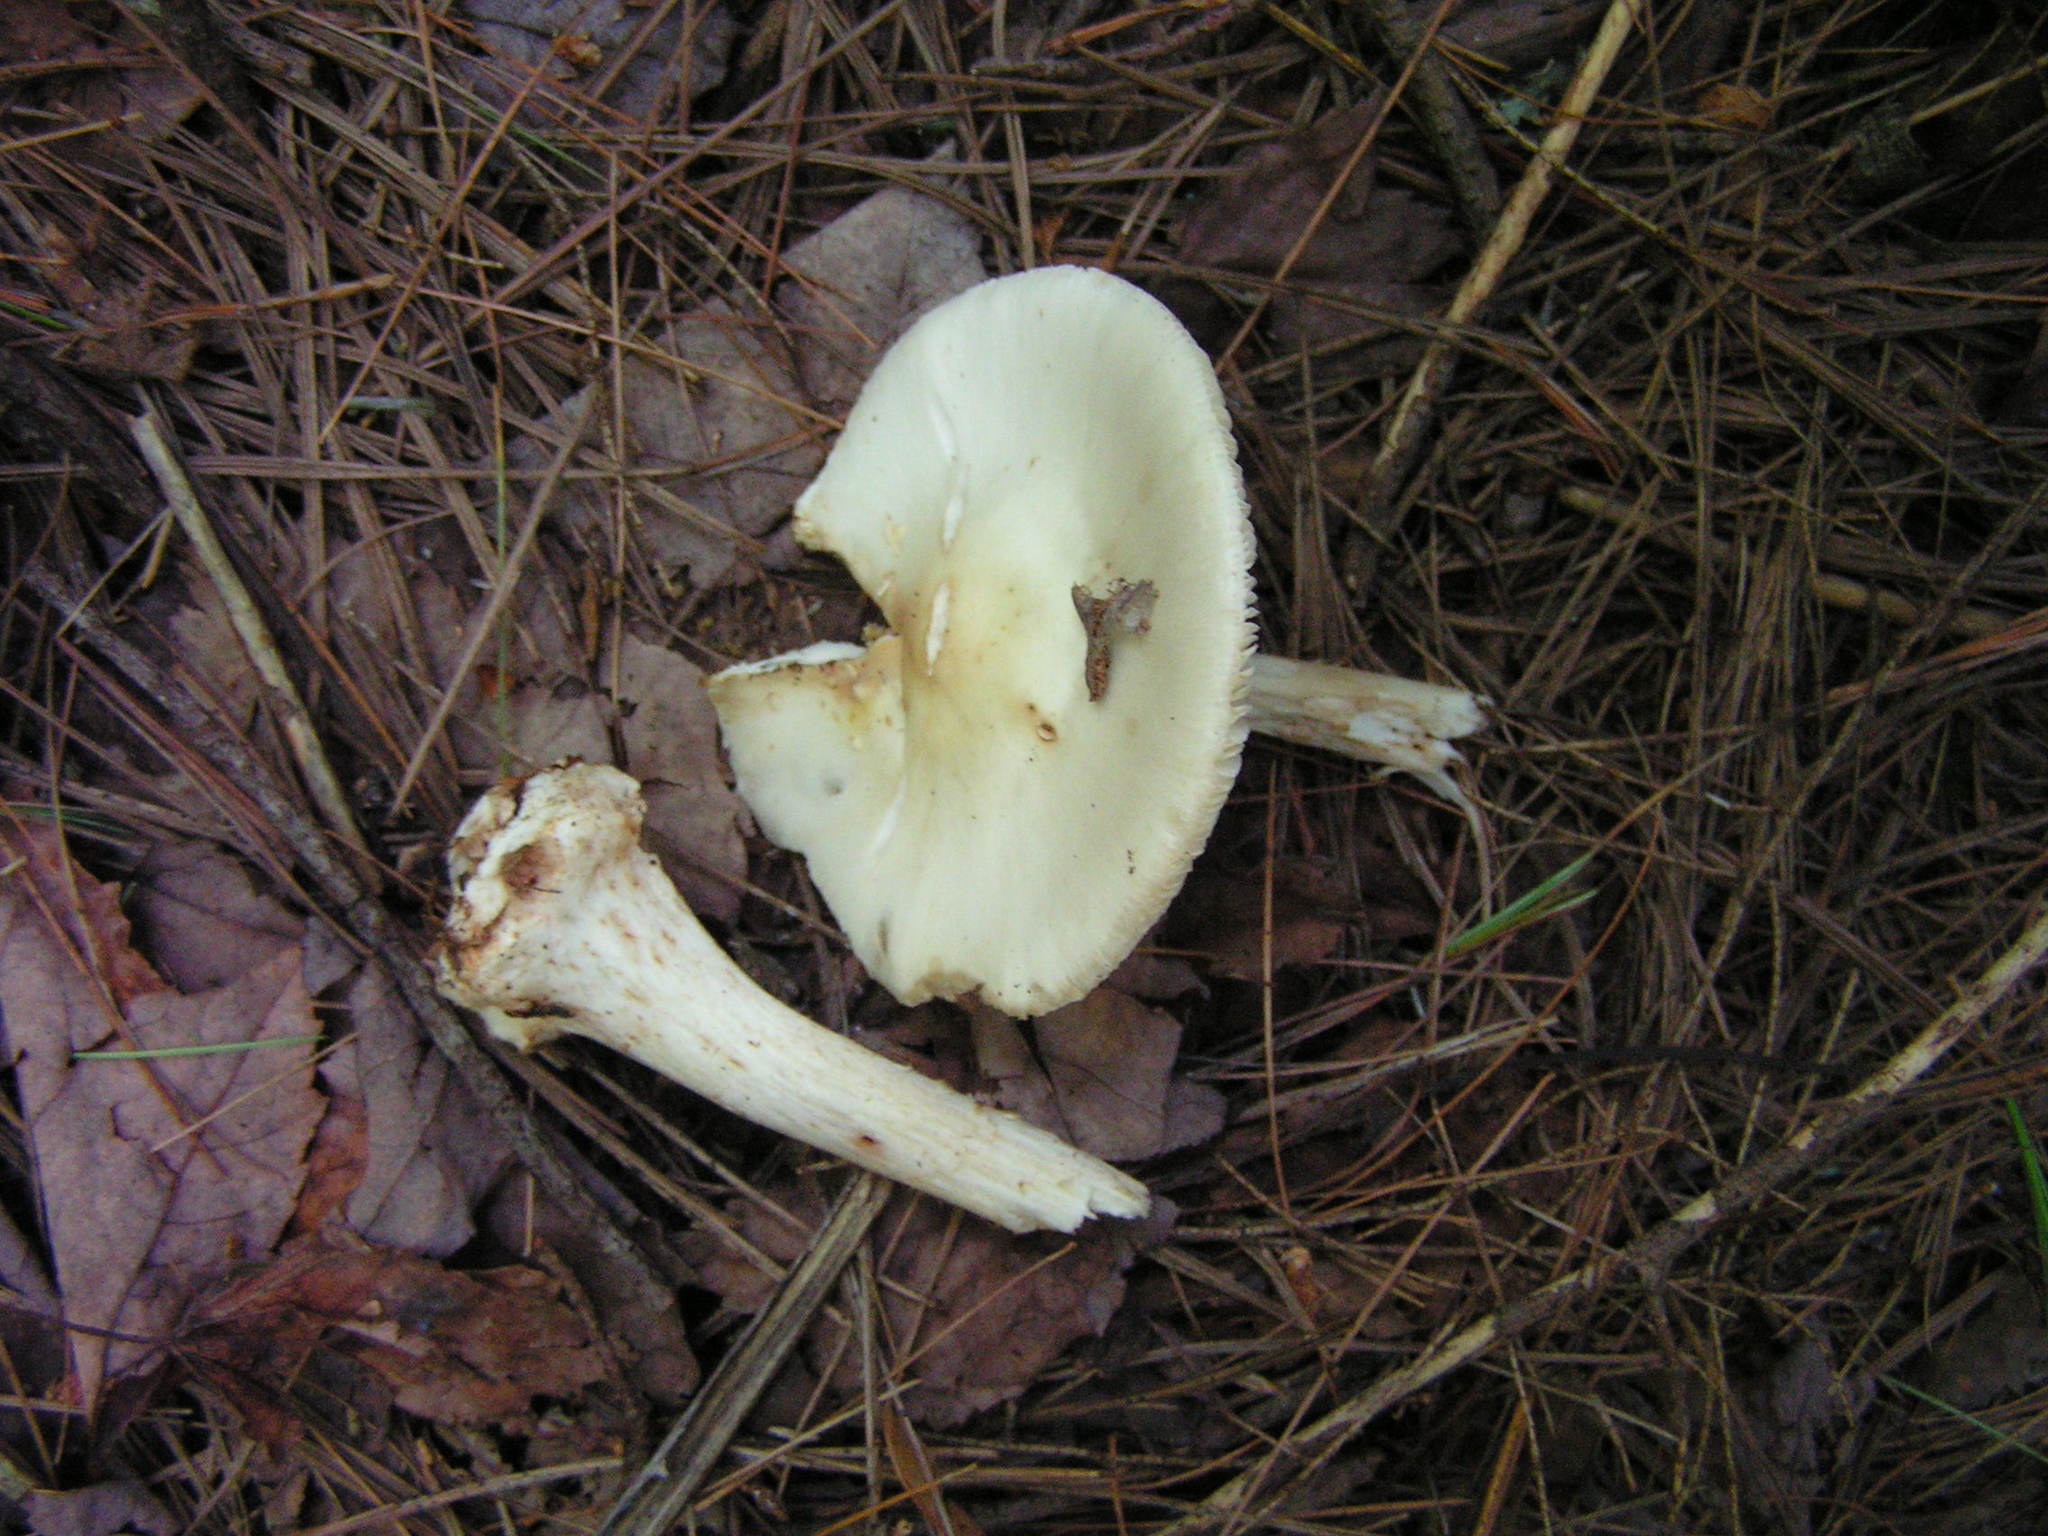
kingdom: Fungi
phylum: Basidiomycota
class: Agaricomycetes
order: Agaricales
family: Amanitaceae
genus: Amanita
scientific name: Amanita brunnescens
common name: Brown american star-footed amanita
